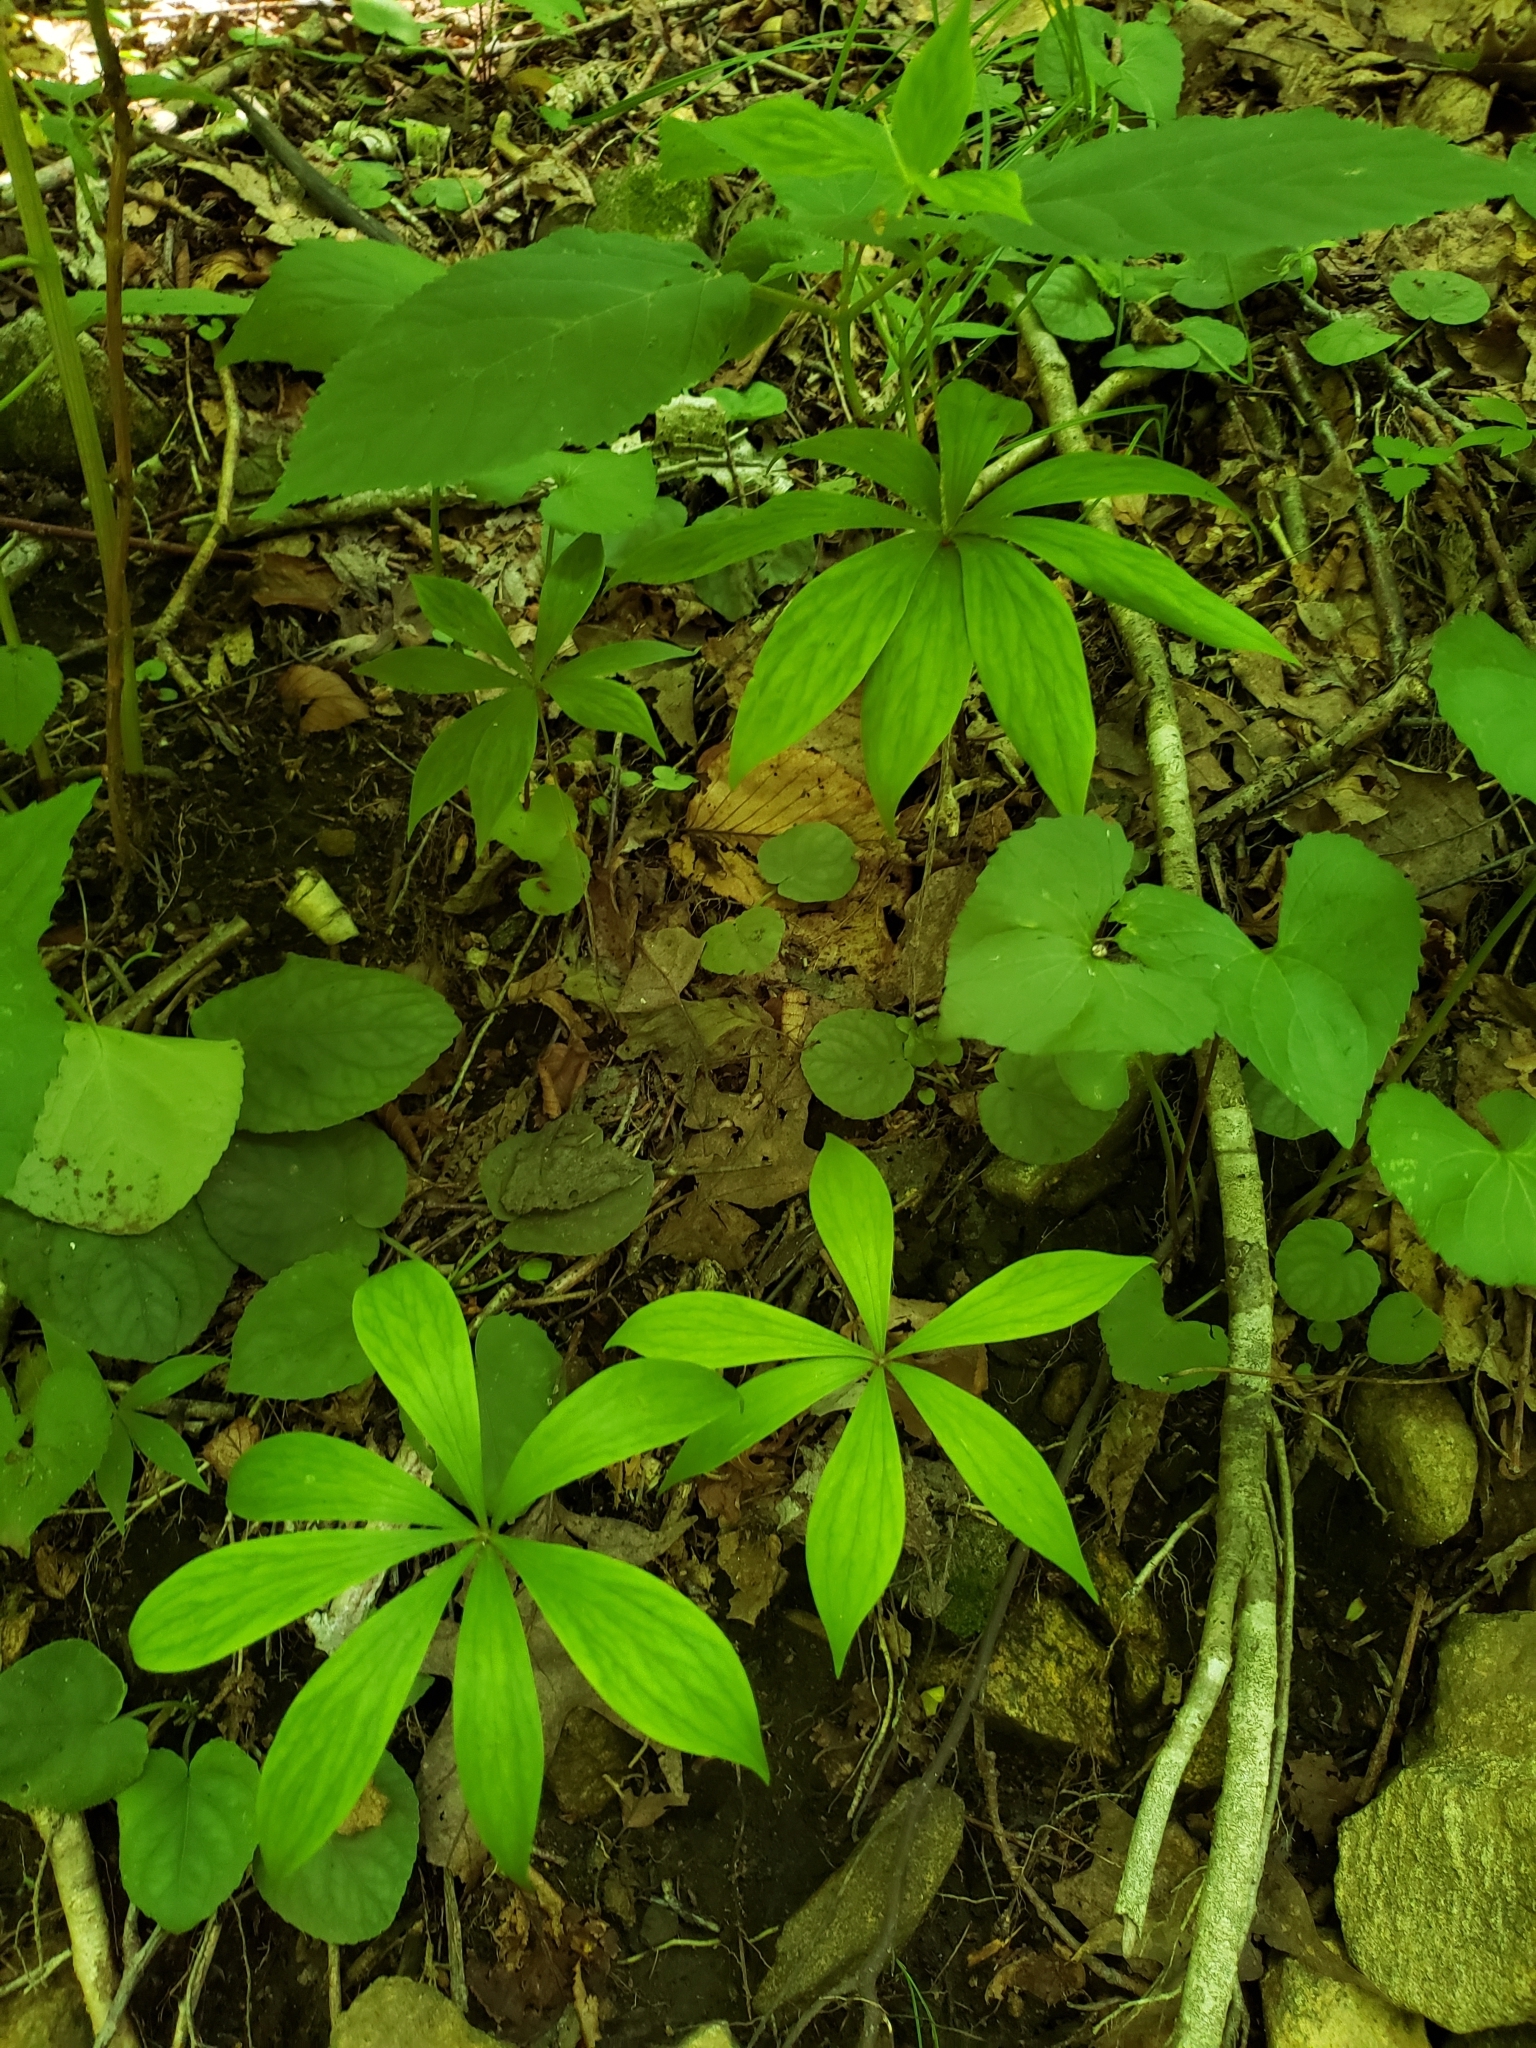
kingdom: Plantae
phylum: Tracheophyta
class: Liliopsida
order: Liliales
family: Liliaceae
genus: Medeola
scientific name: Medeola virginiana
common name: Indian cucumber-root
